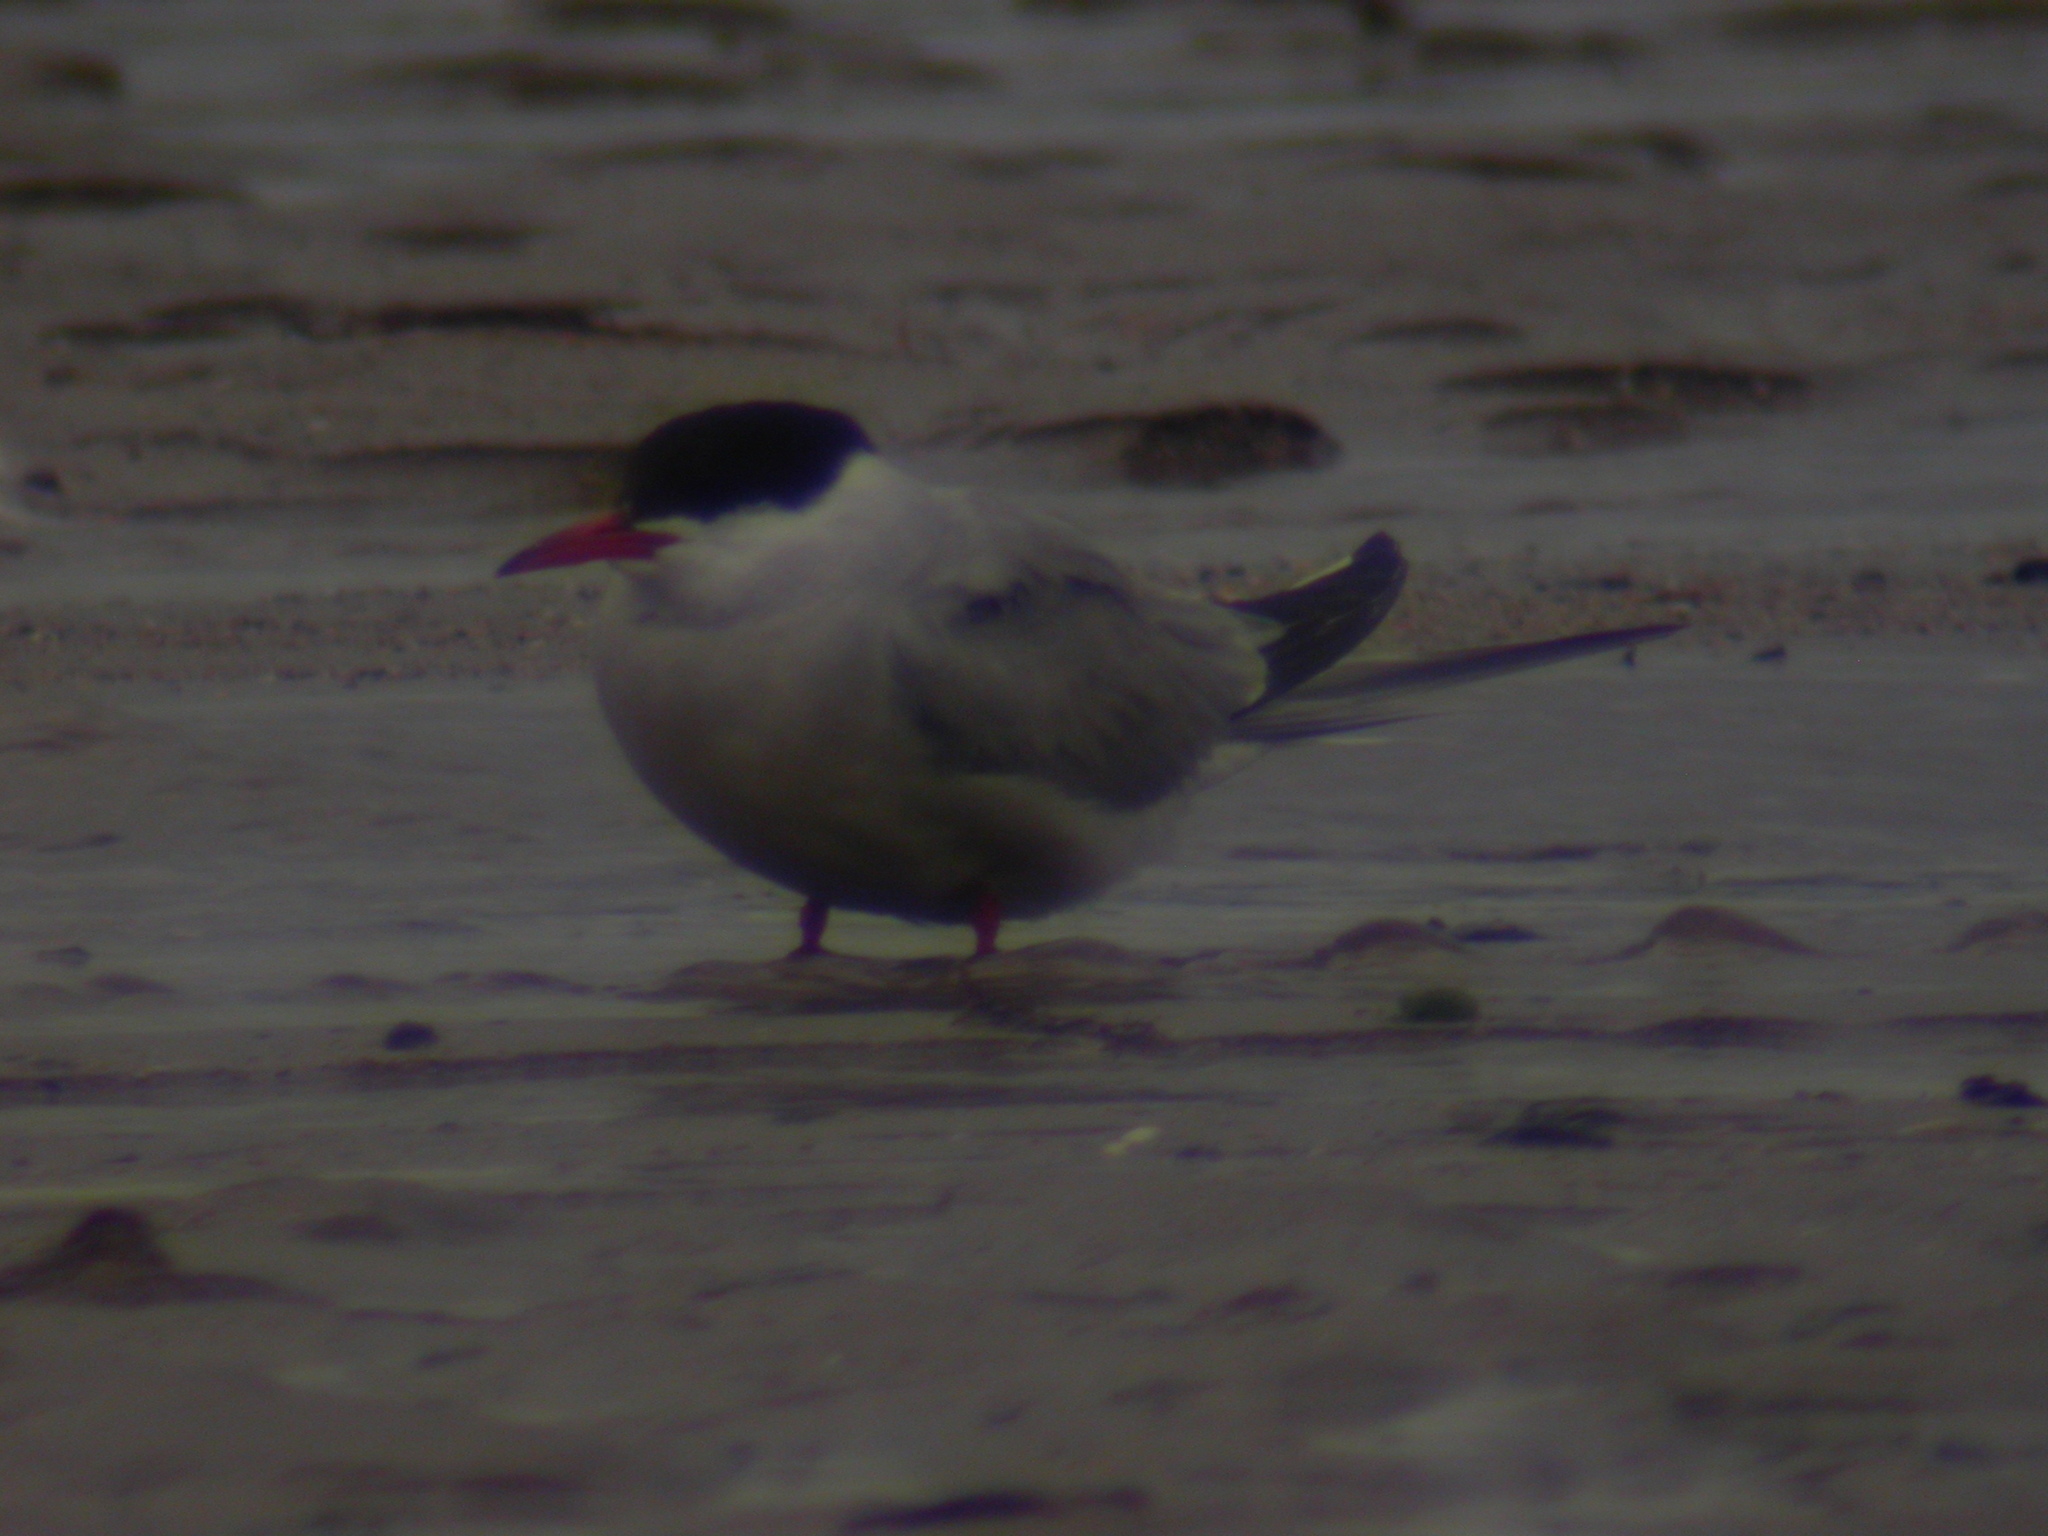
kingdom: Animalia
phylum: Chordata
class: Aves
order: Charadriiformes
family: Laridae
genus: Sterna
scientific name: Sterna paradisaea
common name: Arctic tern
